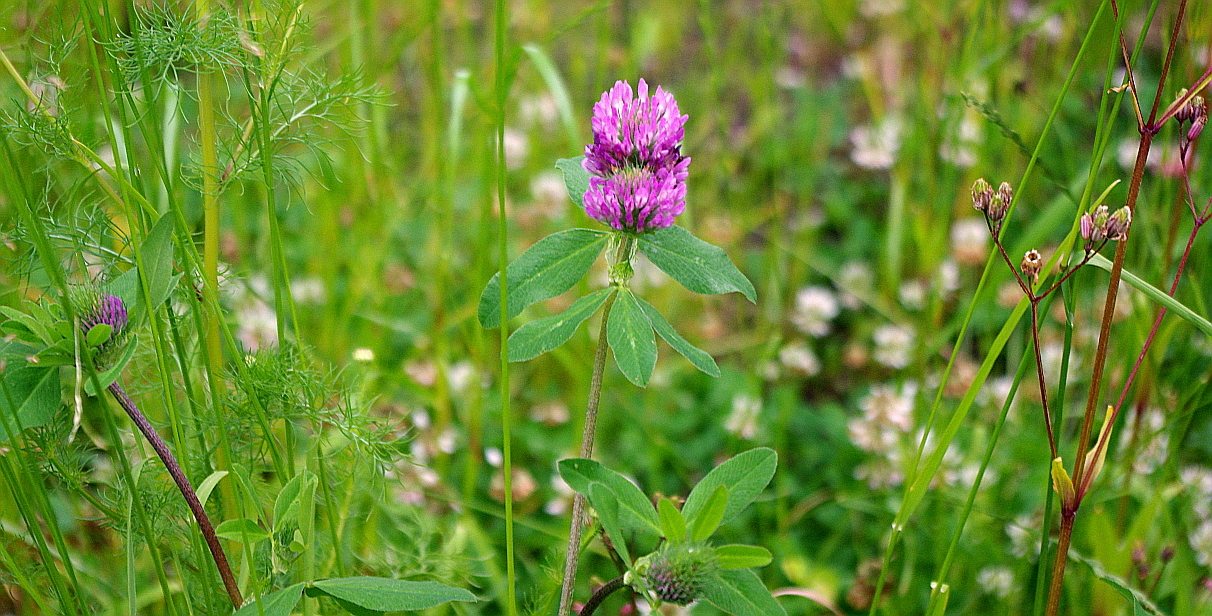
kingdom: Plantae
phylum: Tracheophyta
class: Magnoliopsida
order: Fabales
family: Fabaceae
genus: Trifolium
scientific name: Trifolium pratense
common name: Red clover
